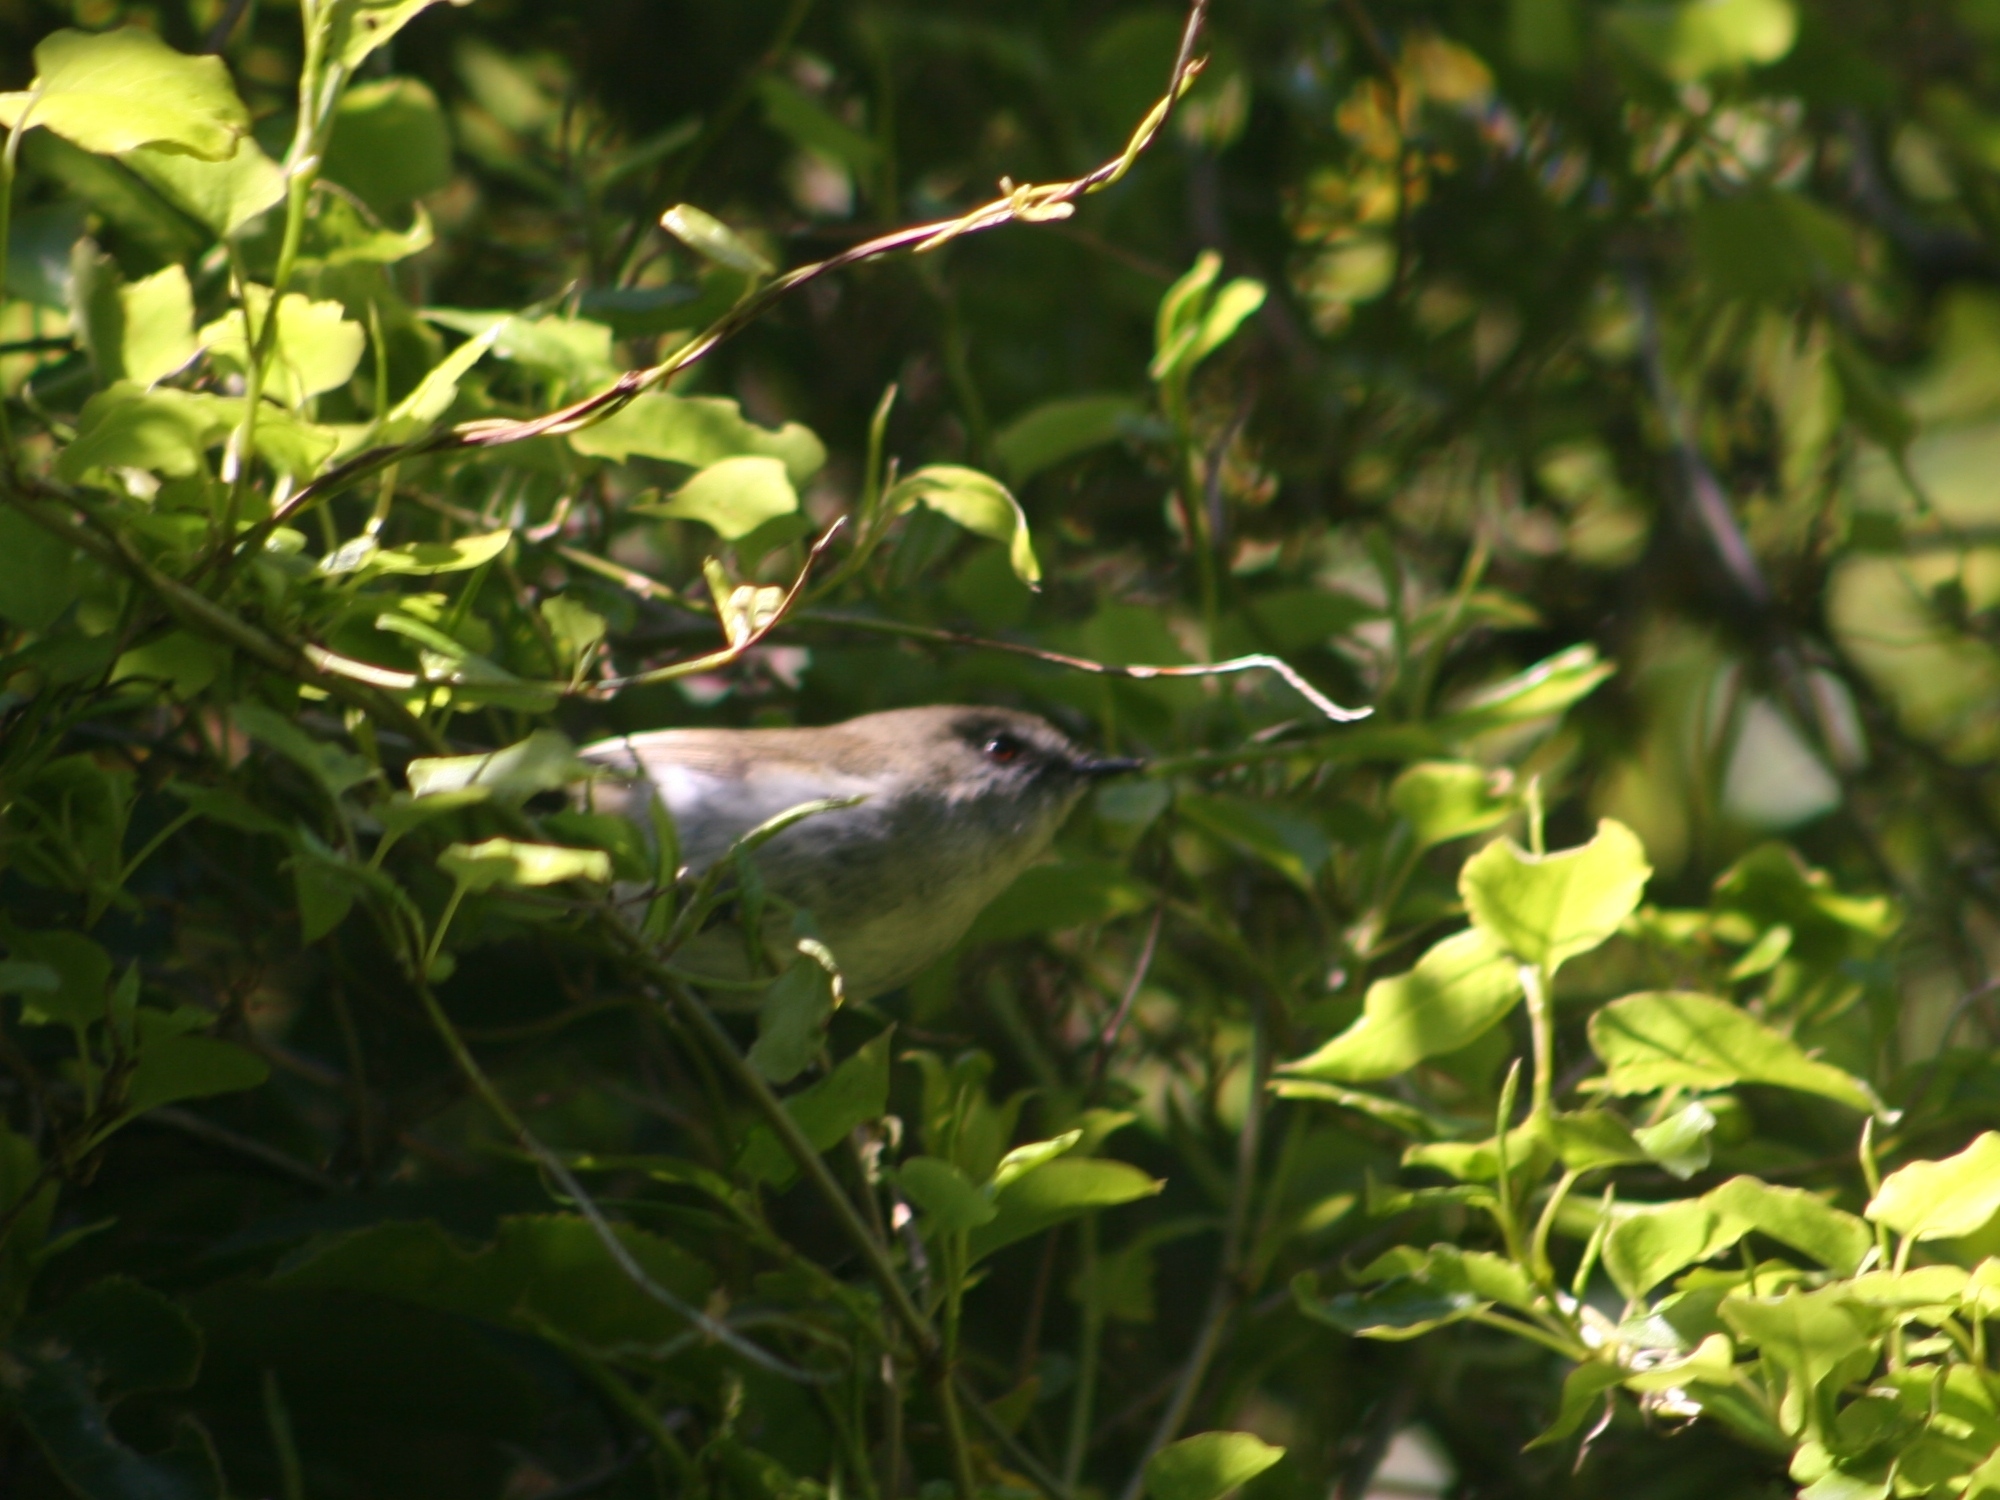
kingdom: Animalia
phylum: Chordata
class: Aves
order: Passeriformes
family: Acanthizidae
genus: Gerygone
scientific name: Gerygone igata
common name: Grey gerygone
